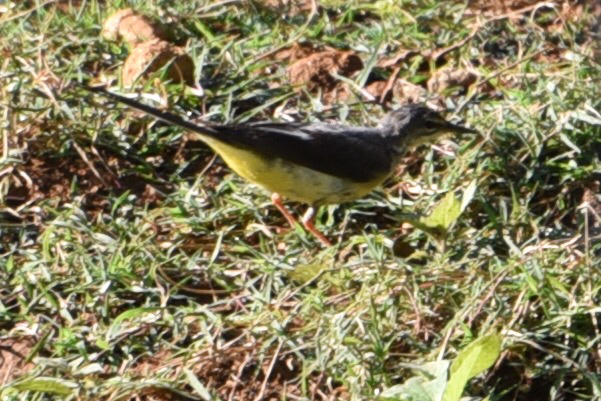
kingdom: Animalia
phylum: Chordata
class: Aves
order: Passeriformes
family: Motacillidae
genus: Motacilla
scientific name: Motacilla cinerea
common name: Grey wagtail
